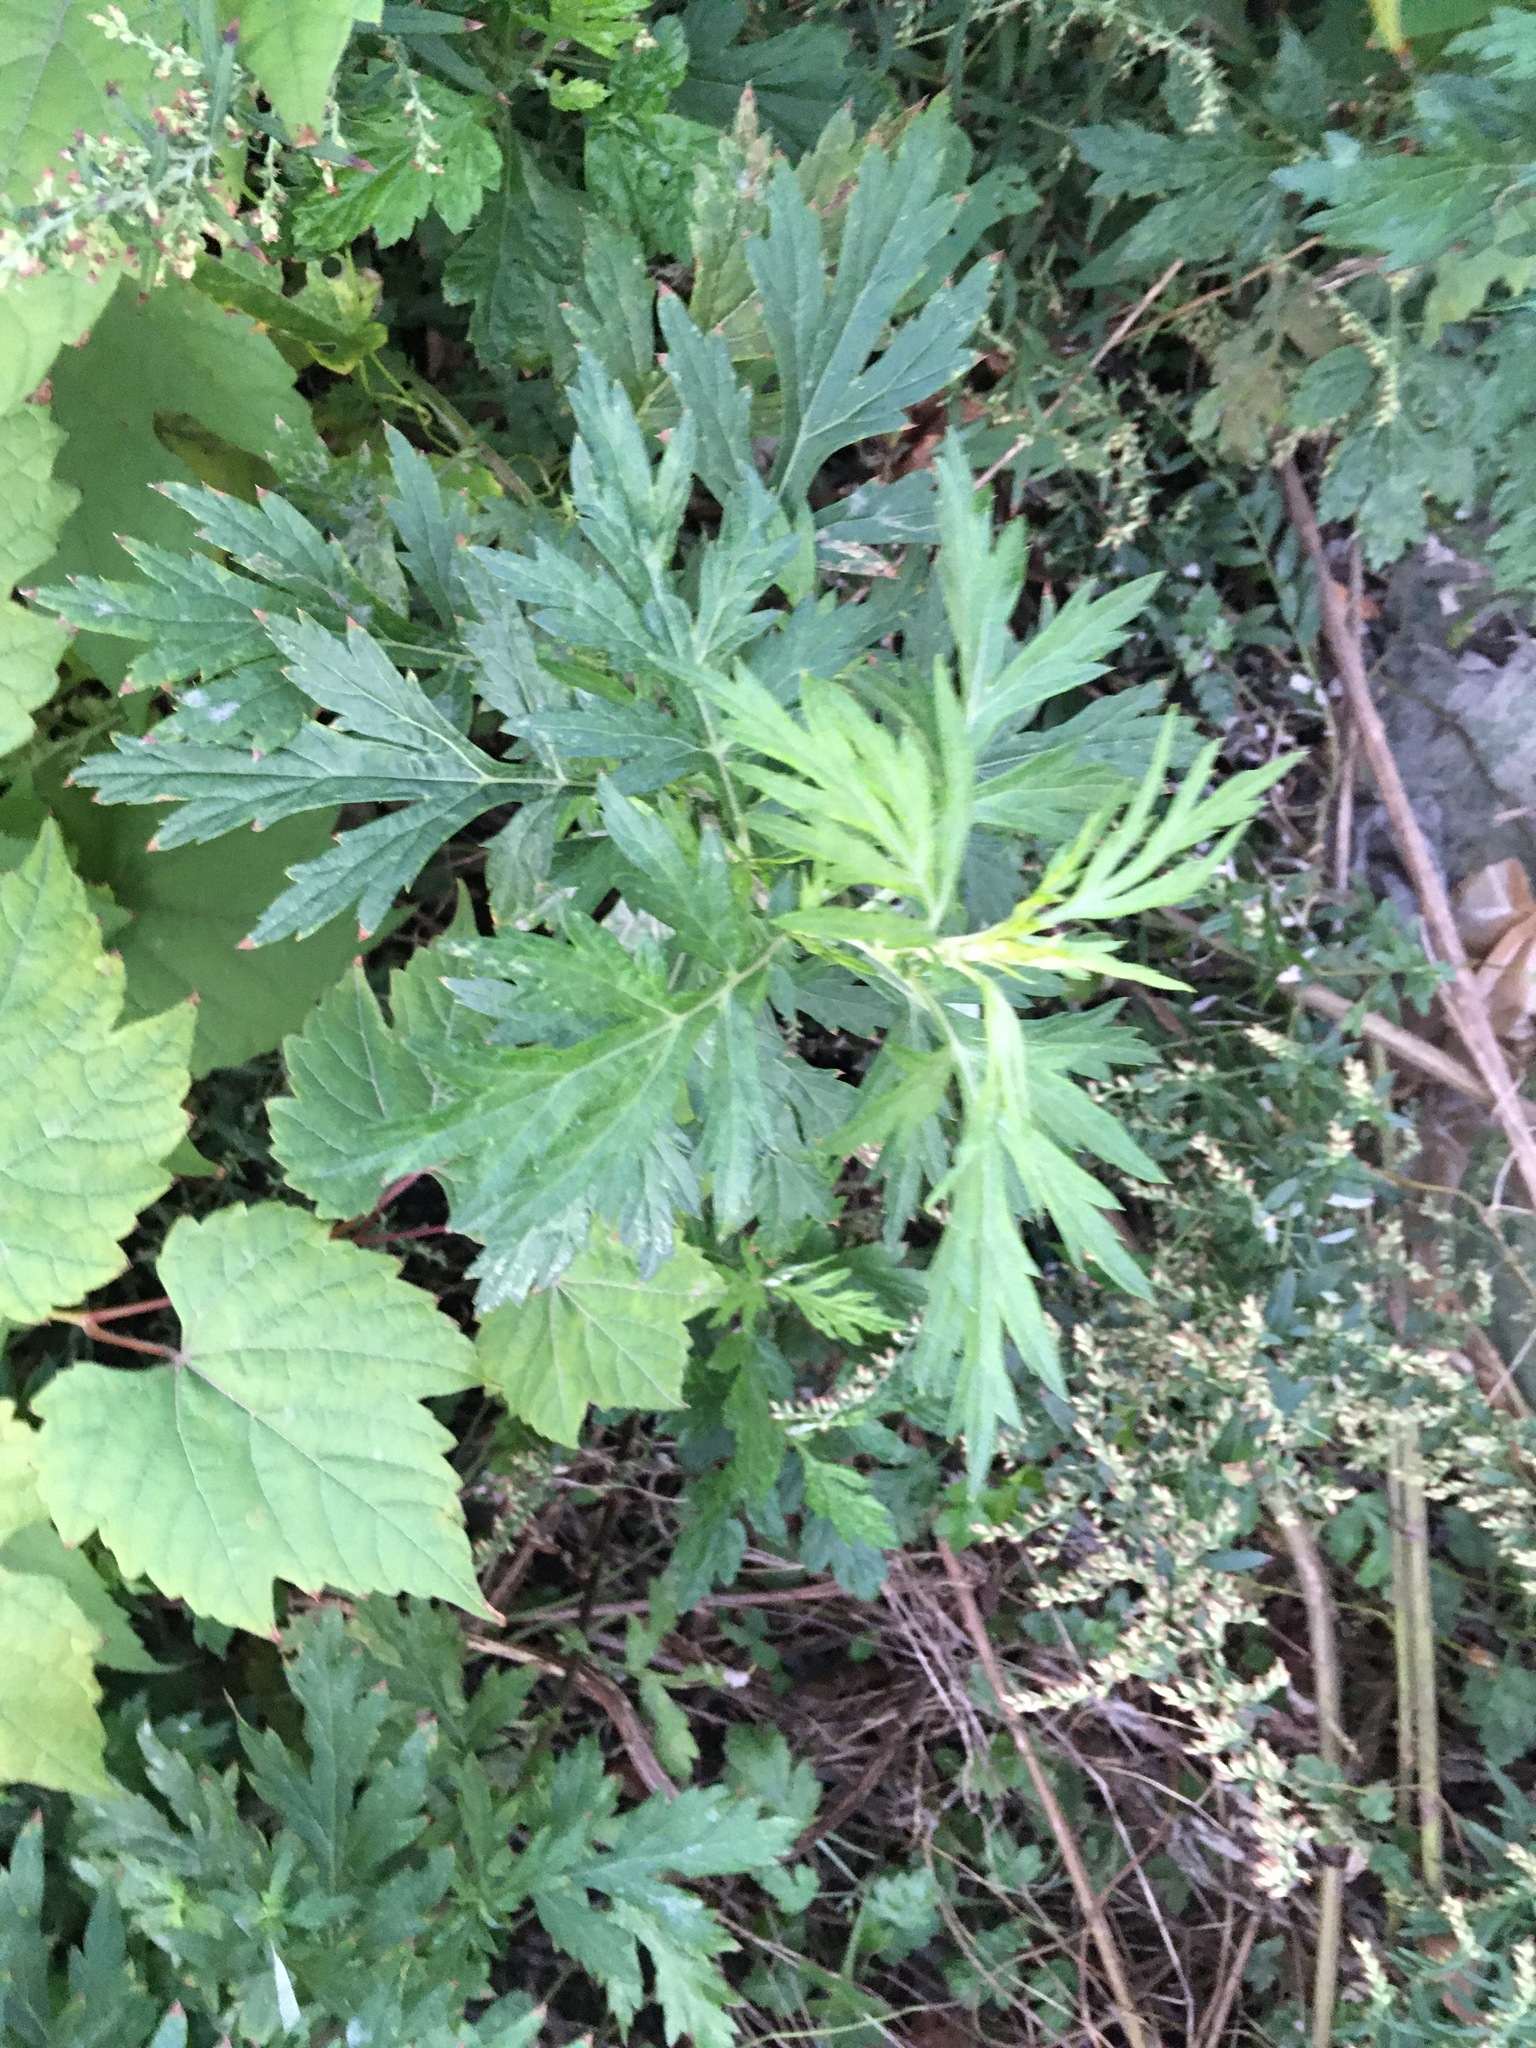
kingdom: Plantae
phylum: Tracheophyta
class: Magnoliopsida
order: Asterales
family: Asteraceae
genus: Artemisia
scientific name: Artemisia vulgaris
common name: Mugwort
